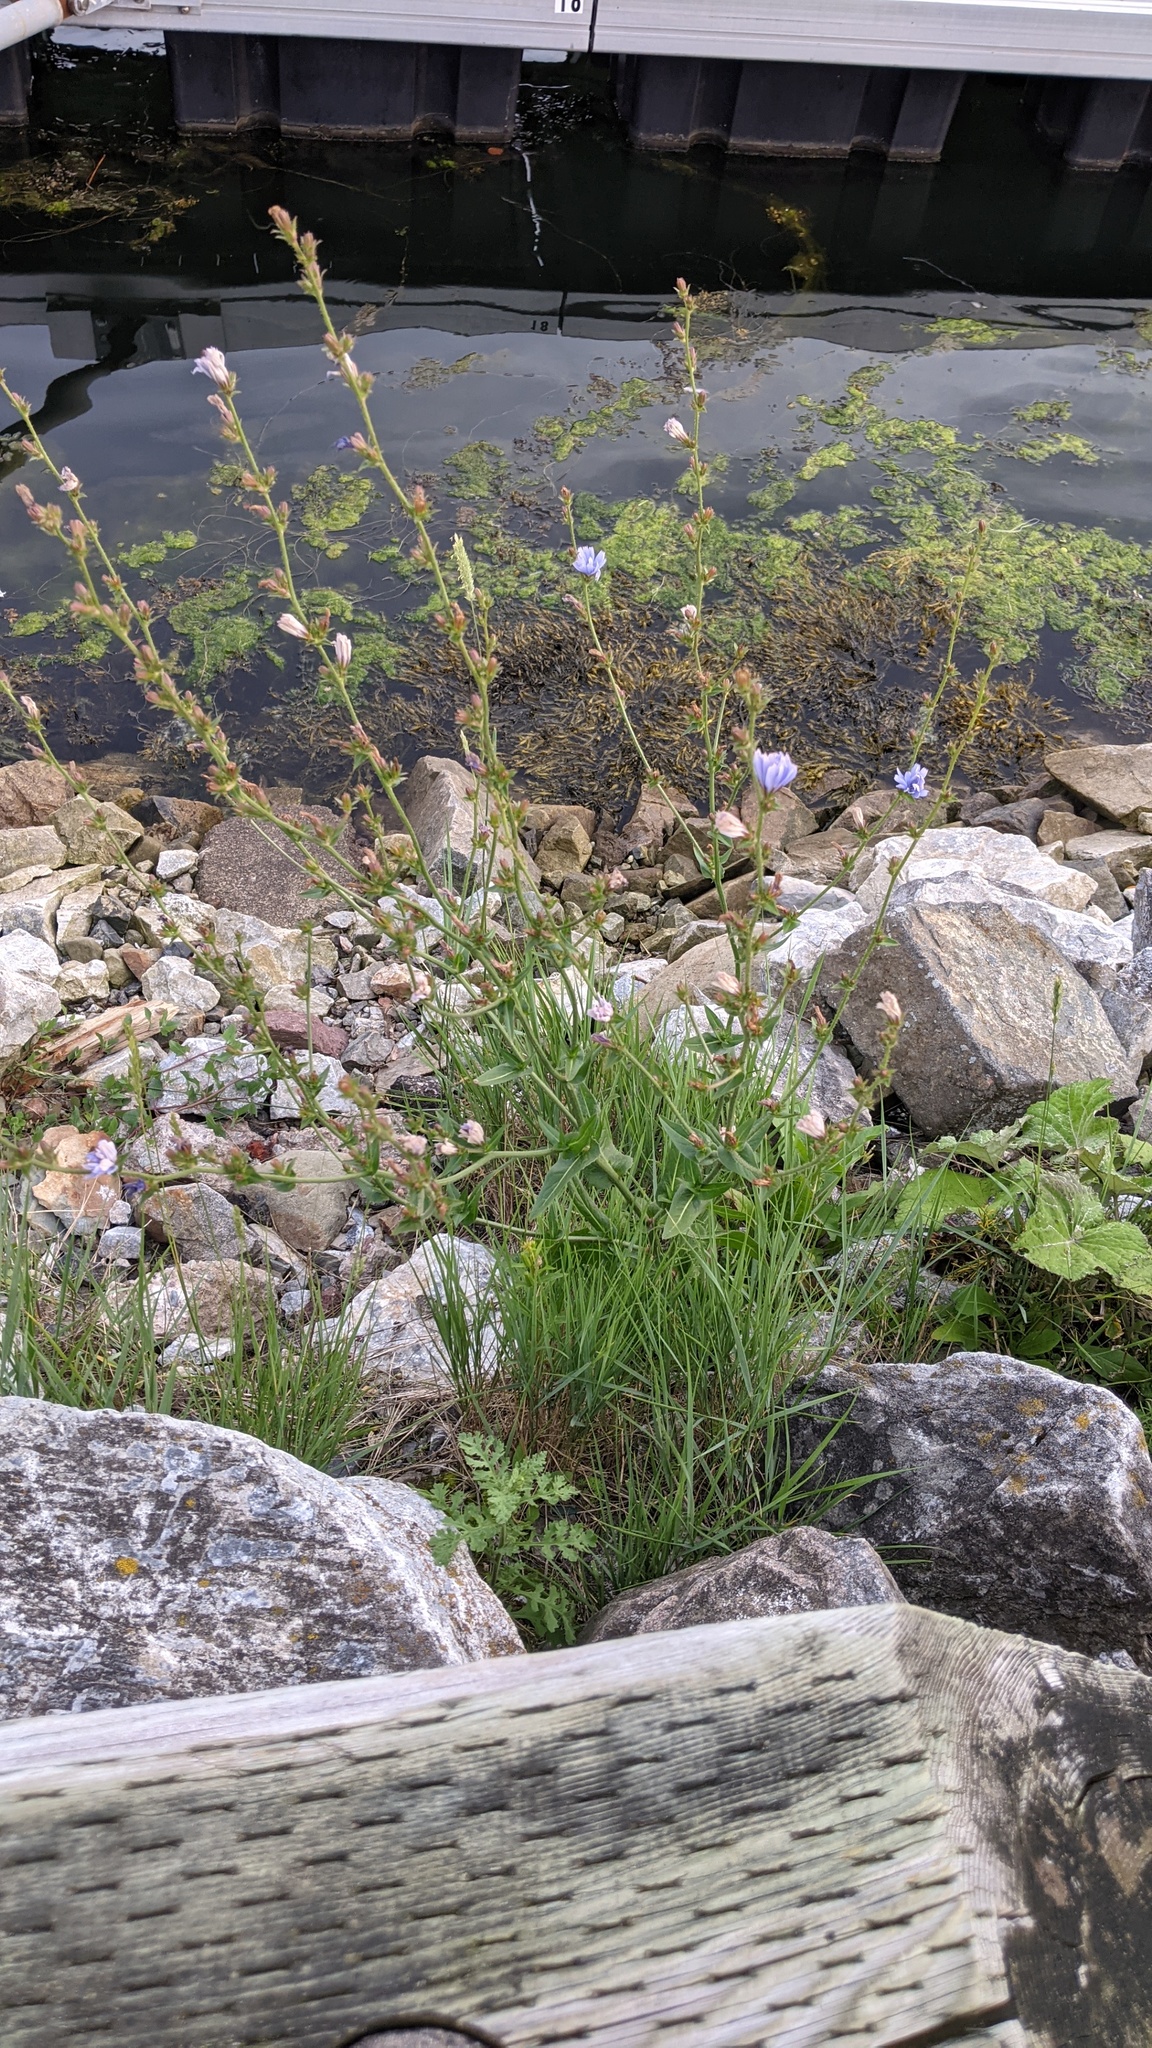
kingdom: Plantae
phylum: Tracheophyta
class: Magnoliopsida
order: Asterales
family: Asteraceae
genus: Cichorium
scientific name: Cichorium intybus
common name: Chicory
